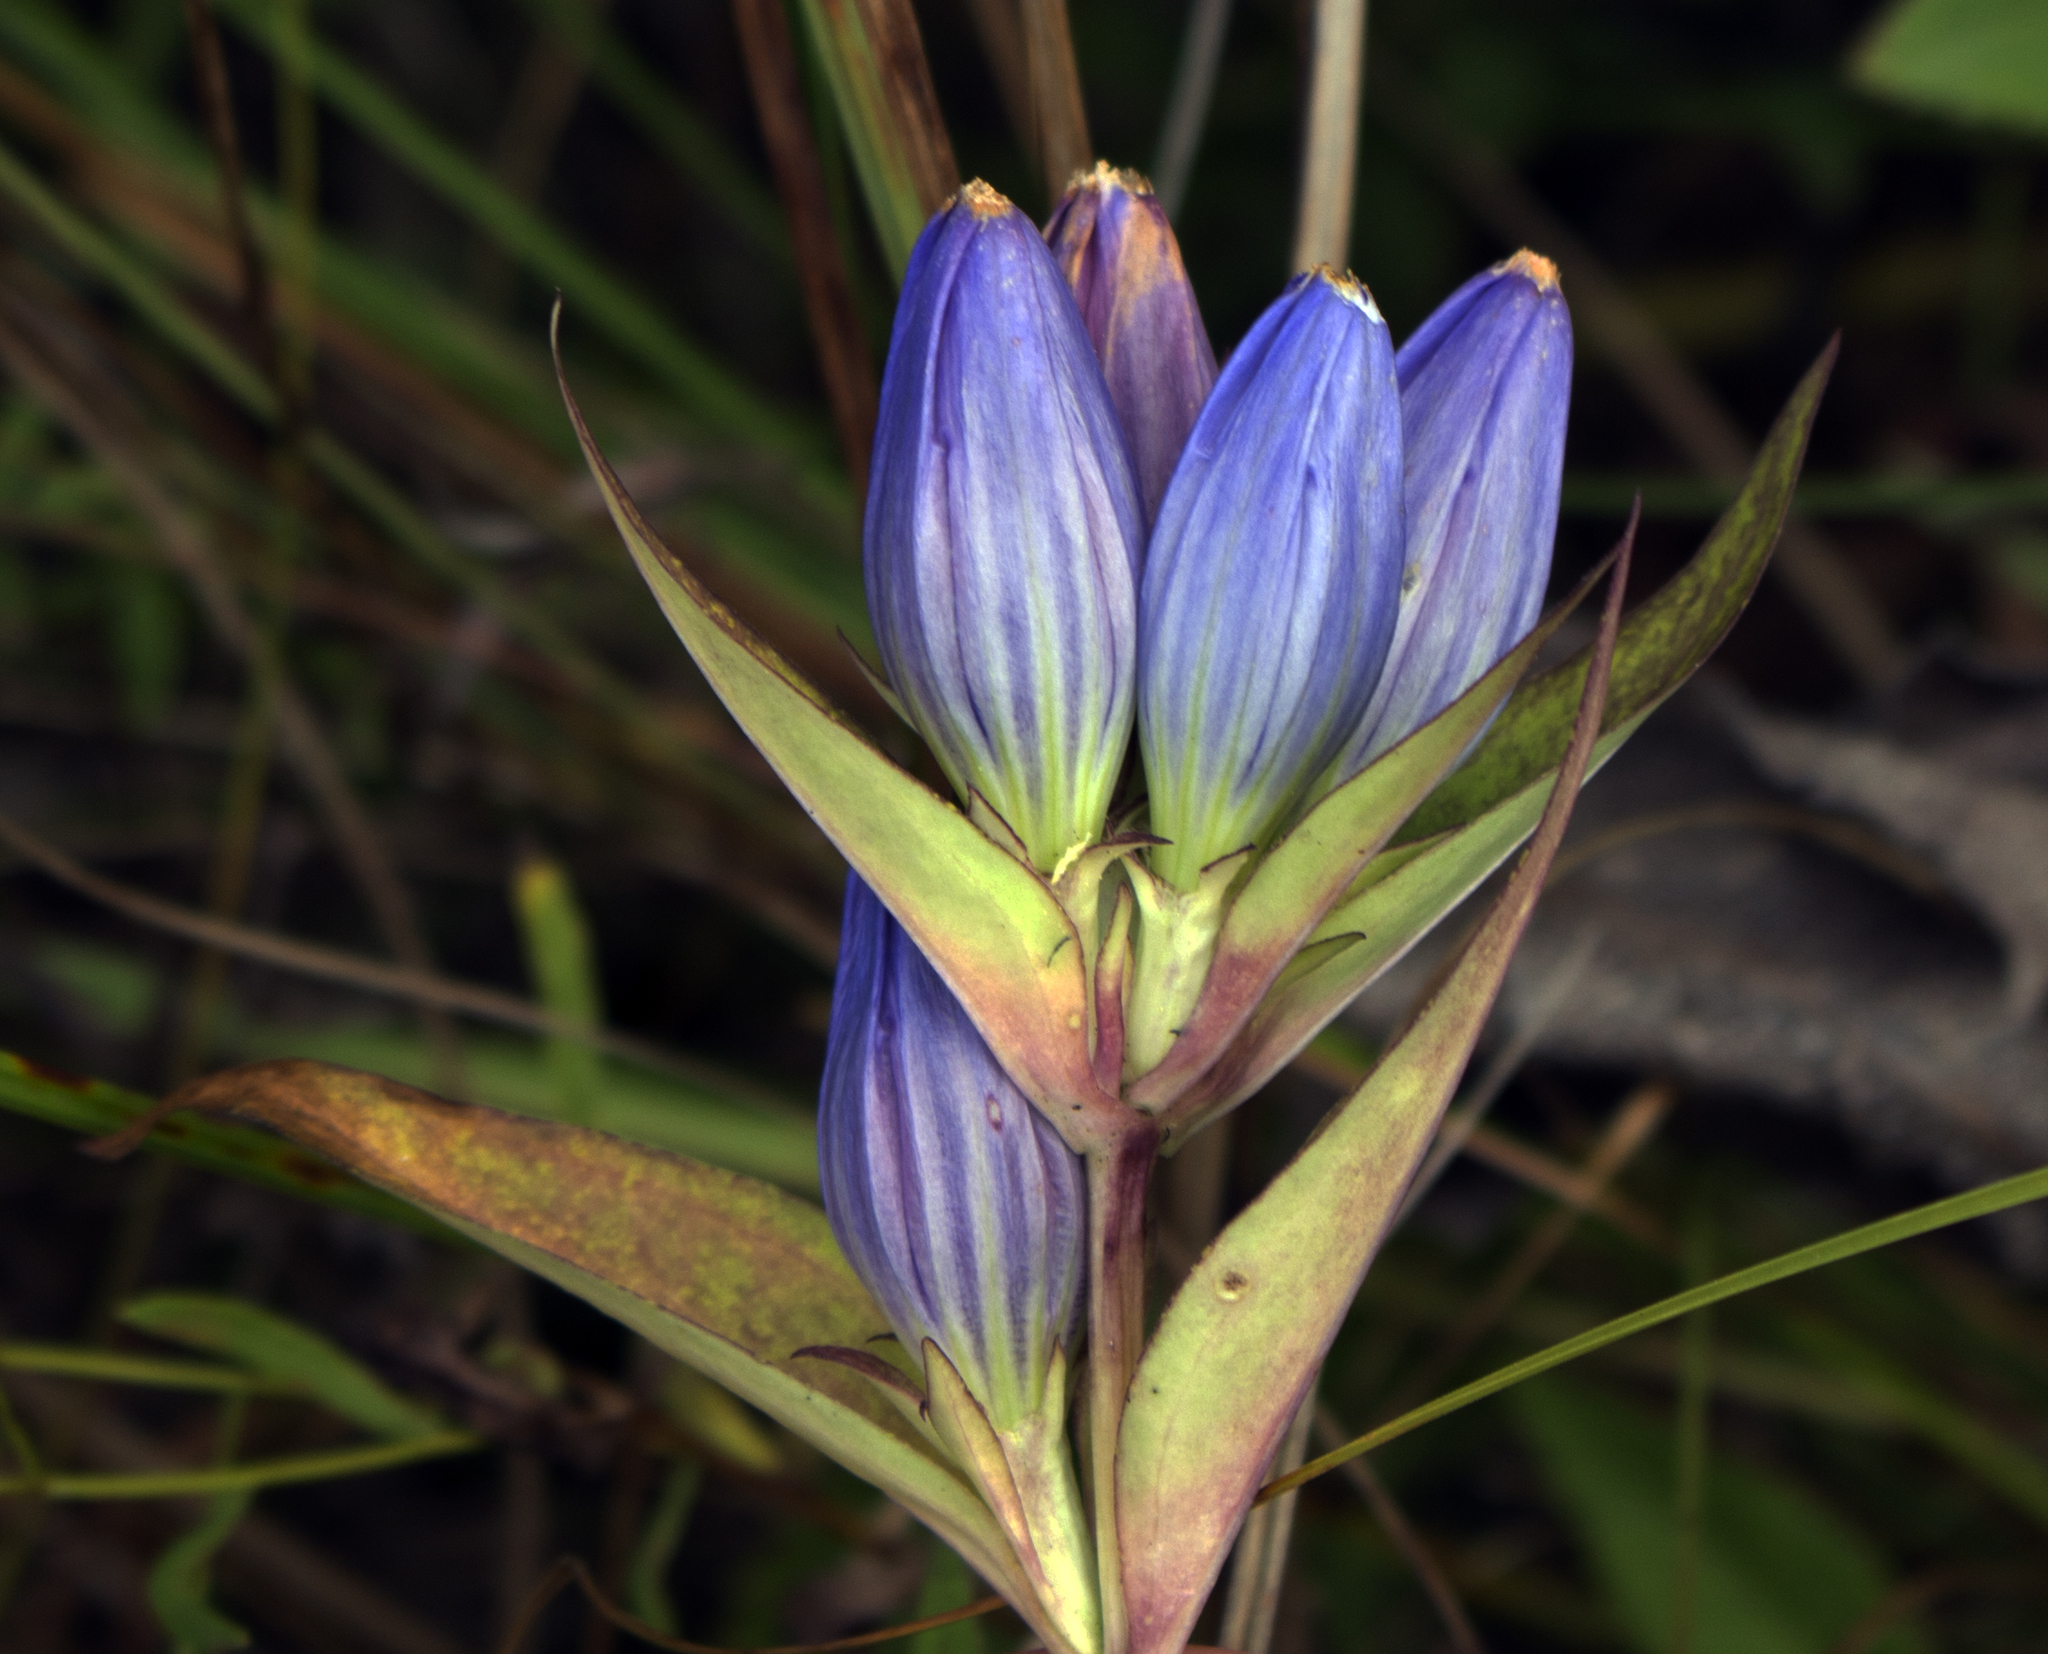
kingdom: Plantae
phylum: Tracheophyta
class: Magnoliopsida
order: Gentianales
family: Gentianaceae
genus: Gentiana
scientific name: Gentiana andrewsii
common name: Bottle gentian
